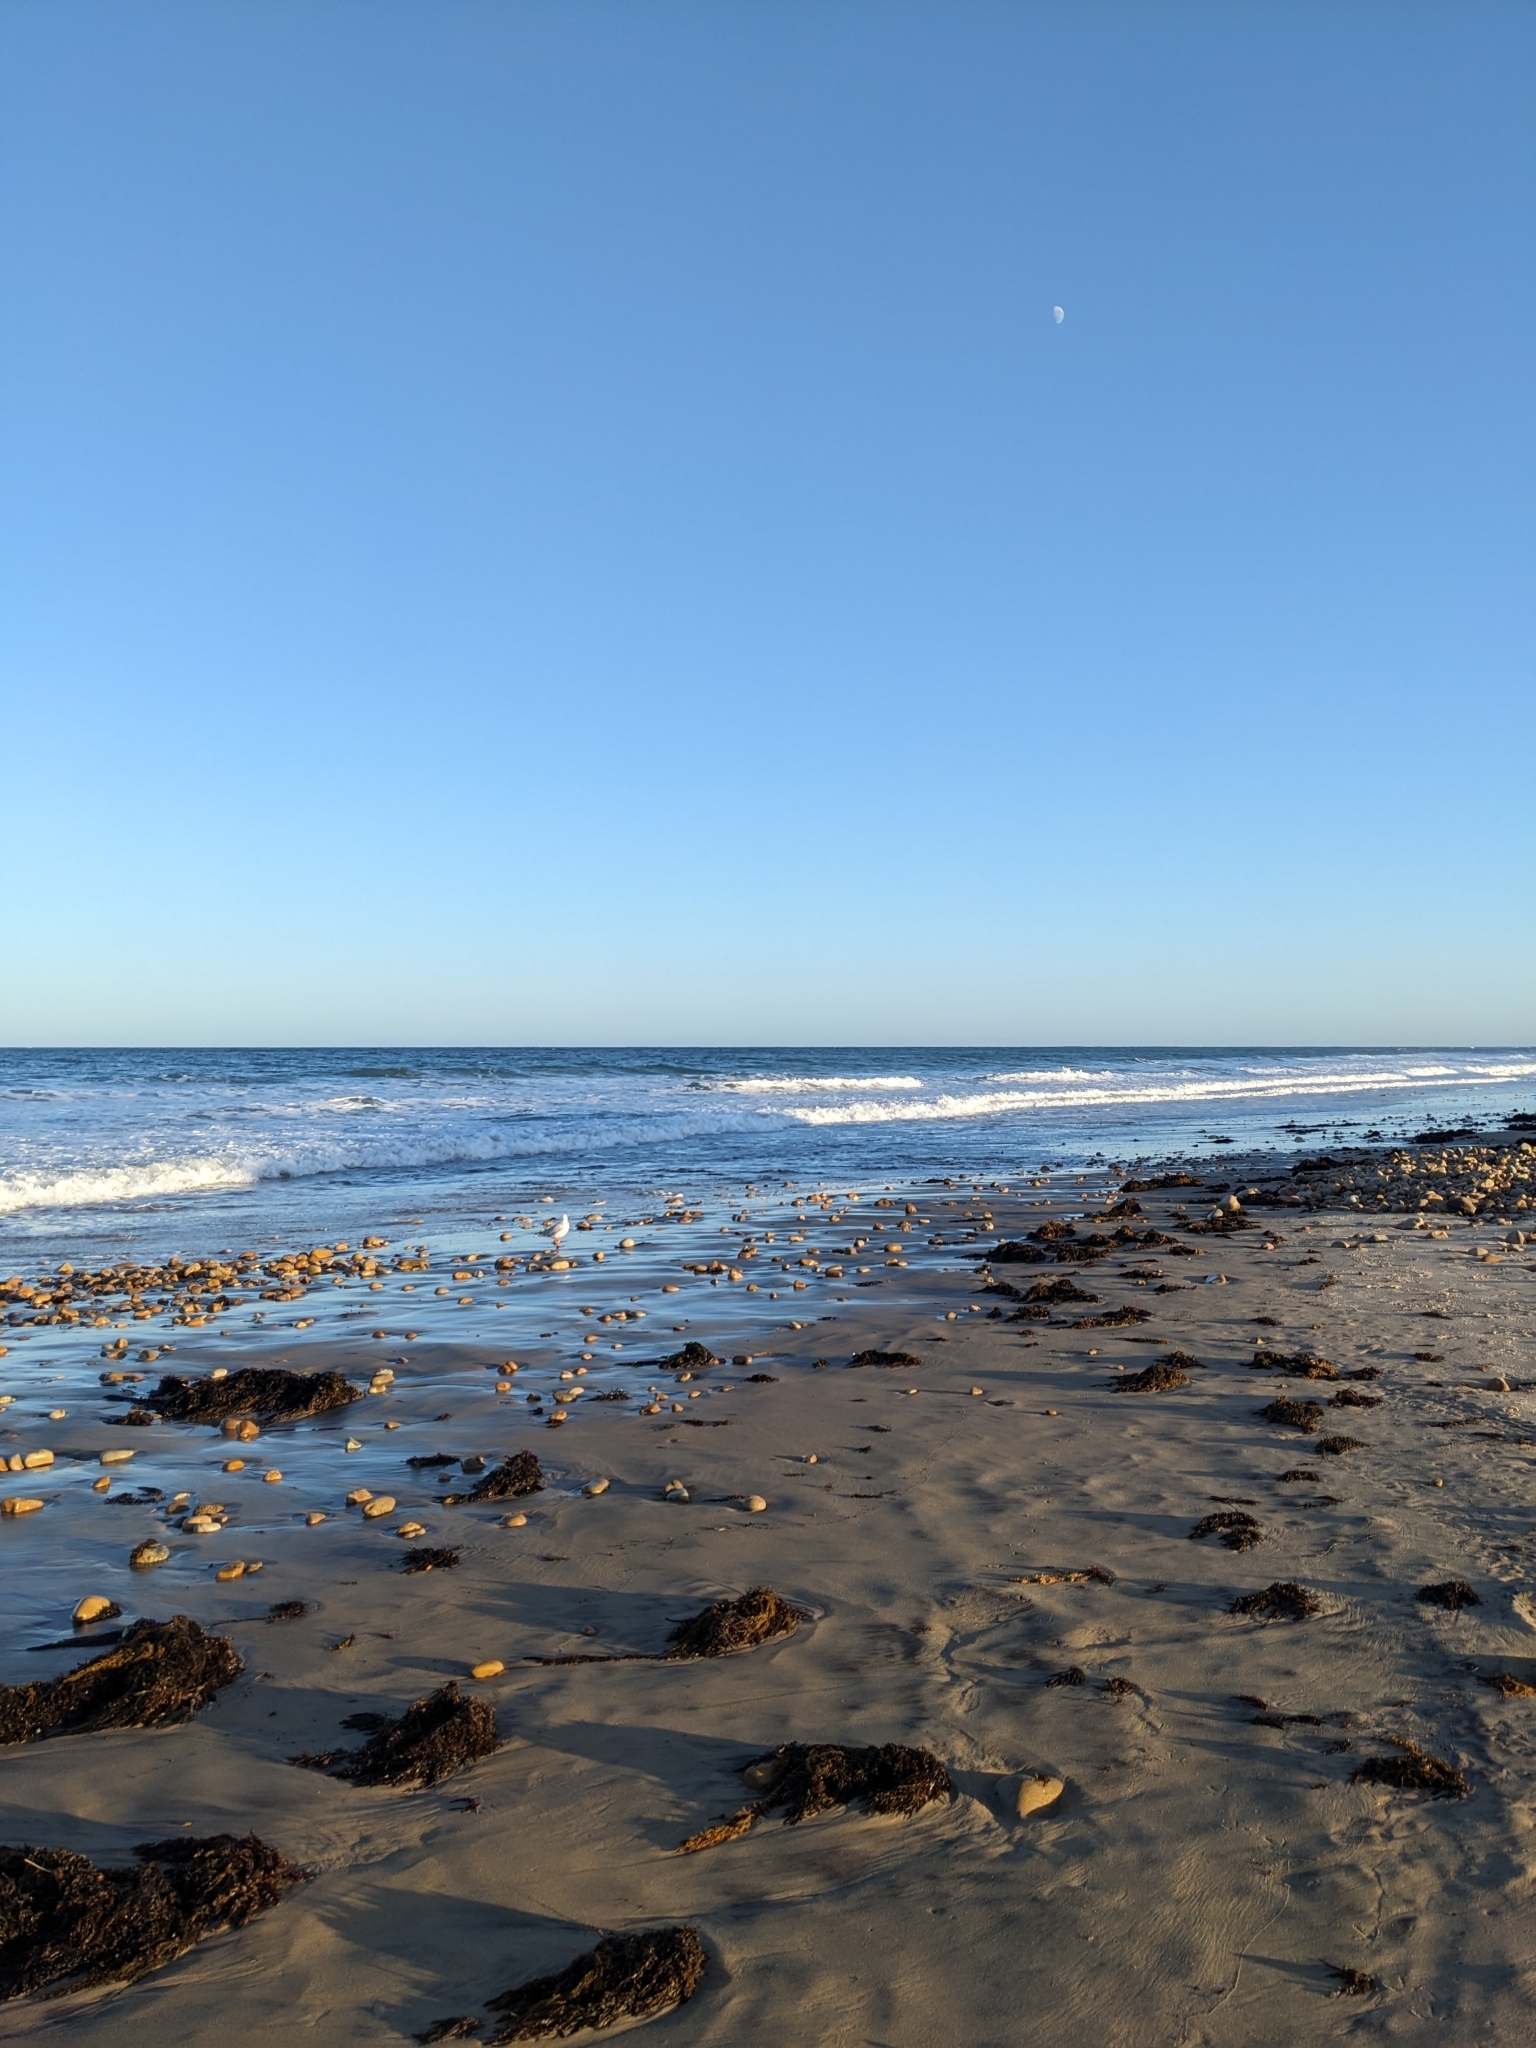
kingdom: Animalia
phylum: Chordata
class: Aves
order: Charadriiformes
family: Laridae
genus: Chroicocephalus
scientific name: Chroicocephalus novaehollandiae
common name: Silver gull
